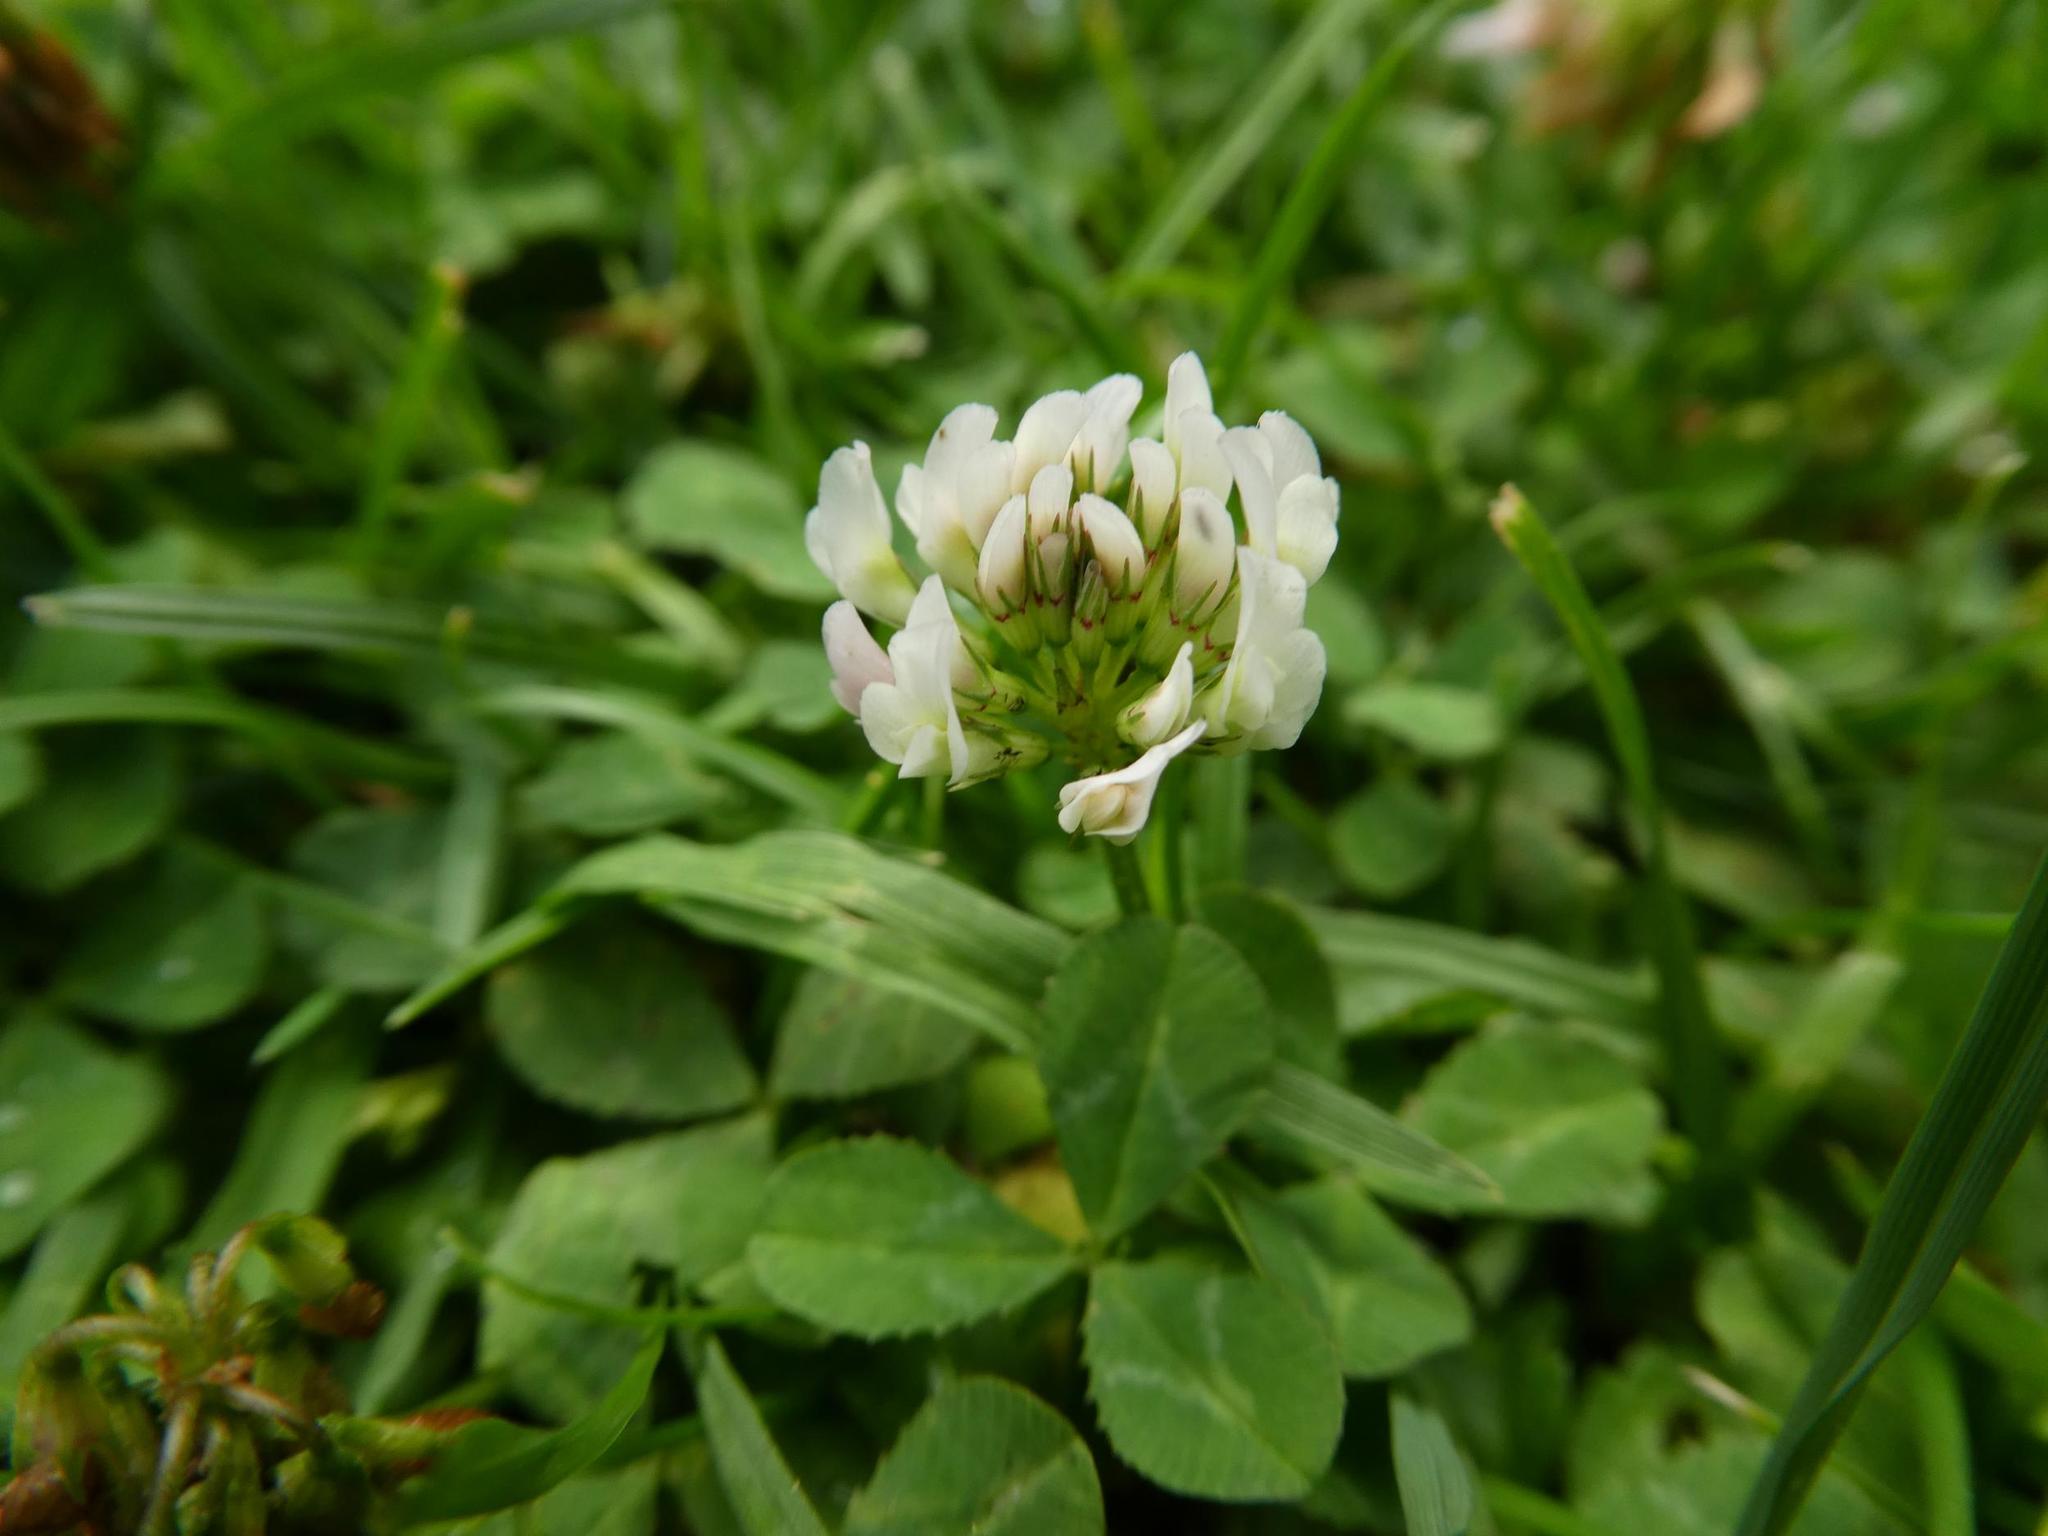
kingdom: Plantae
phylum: Tracheophyta
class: Magnoliopsida
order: Fabales
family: Fabaceae
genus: Trifolium
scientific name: Trifolium repens
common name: White clover
